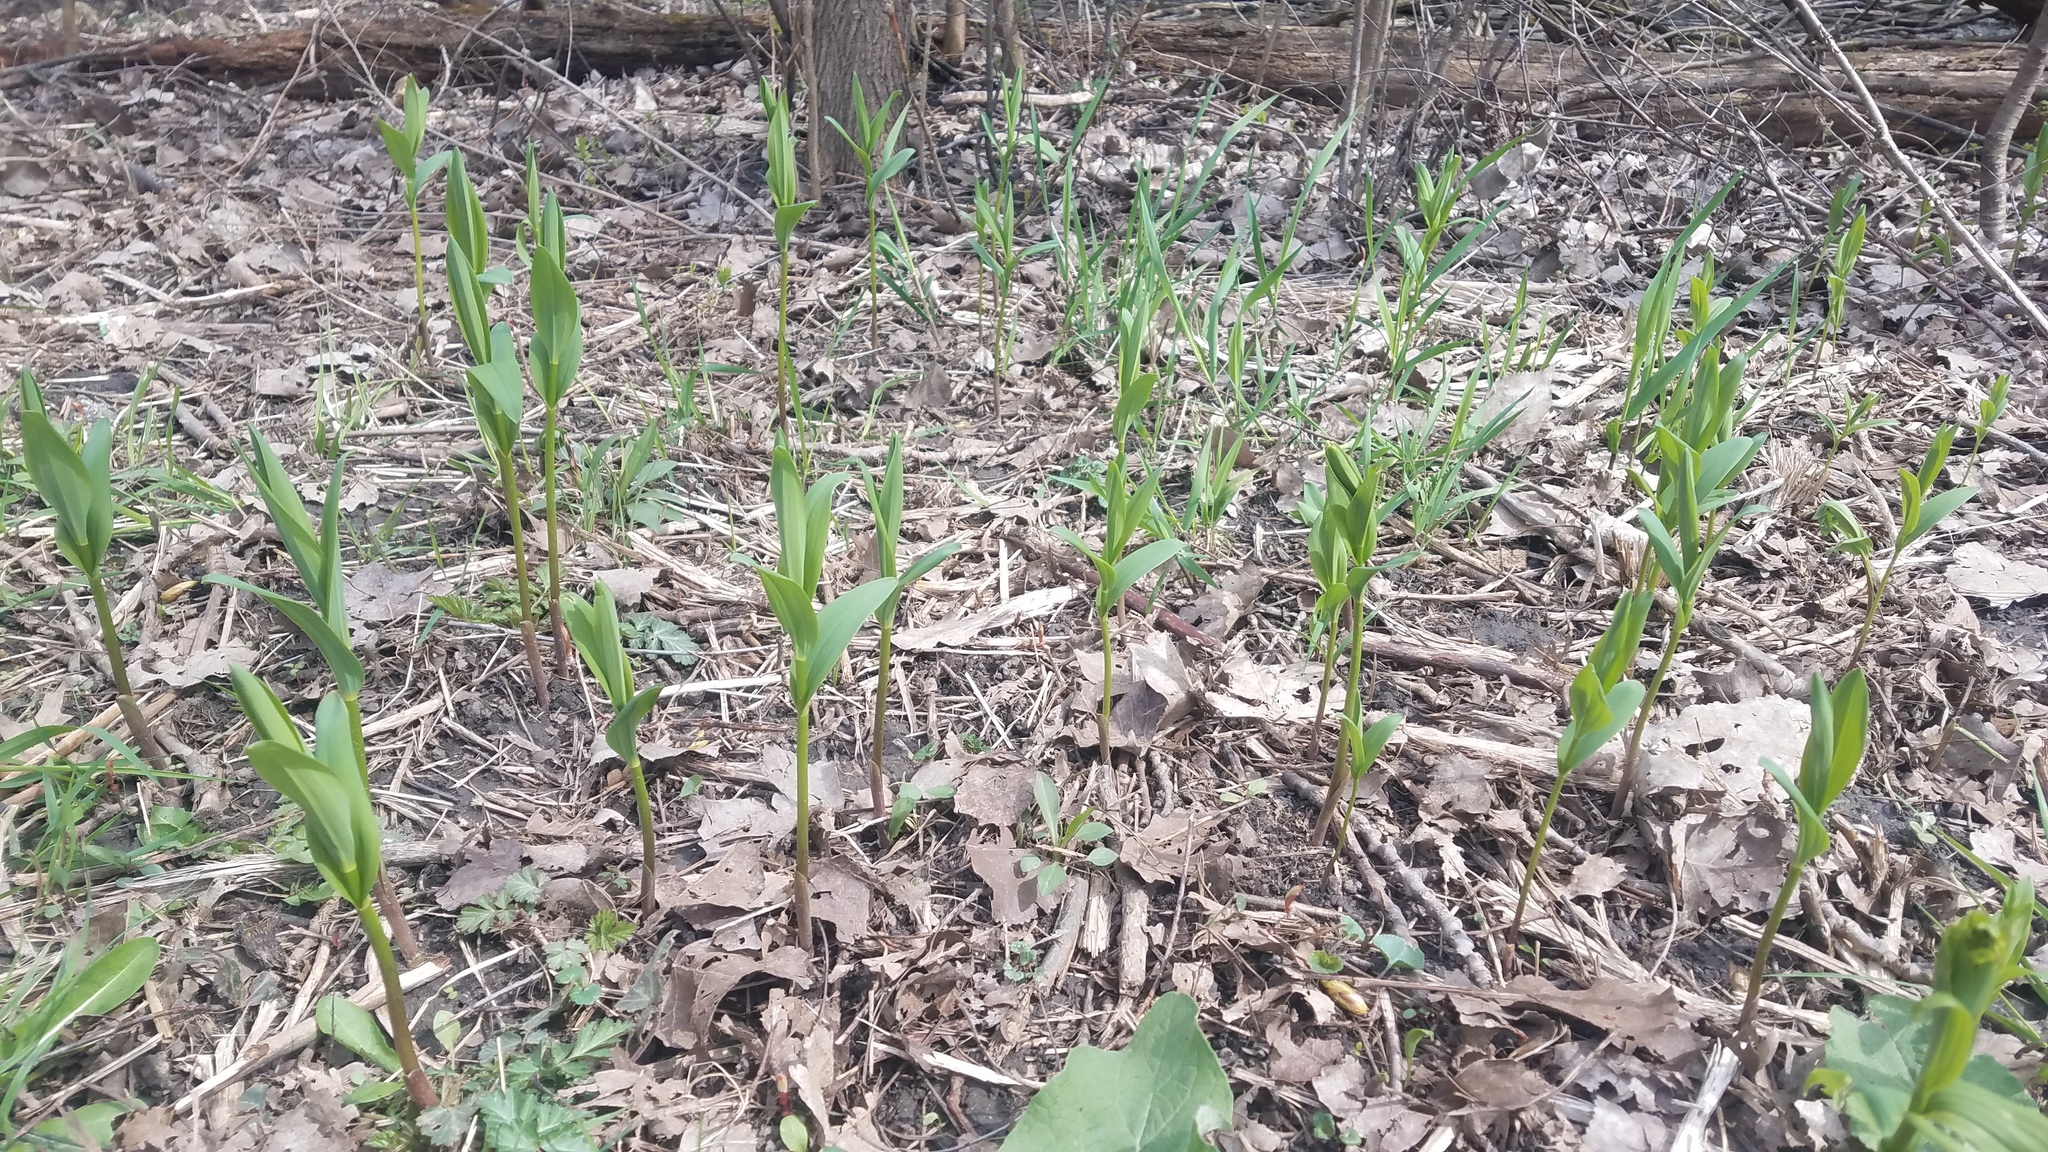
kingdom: Plantae
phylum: Tracheophyta
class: Liliopsida
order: Asparagales
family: Asparagaceae
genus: Maianthemum
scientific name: Maianthemum stellatum
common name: Little false solomon's seal
